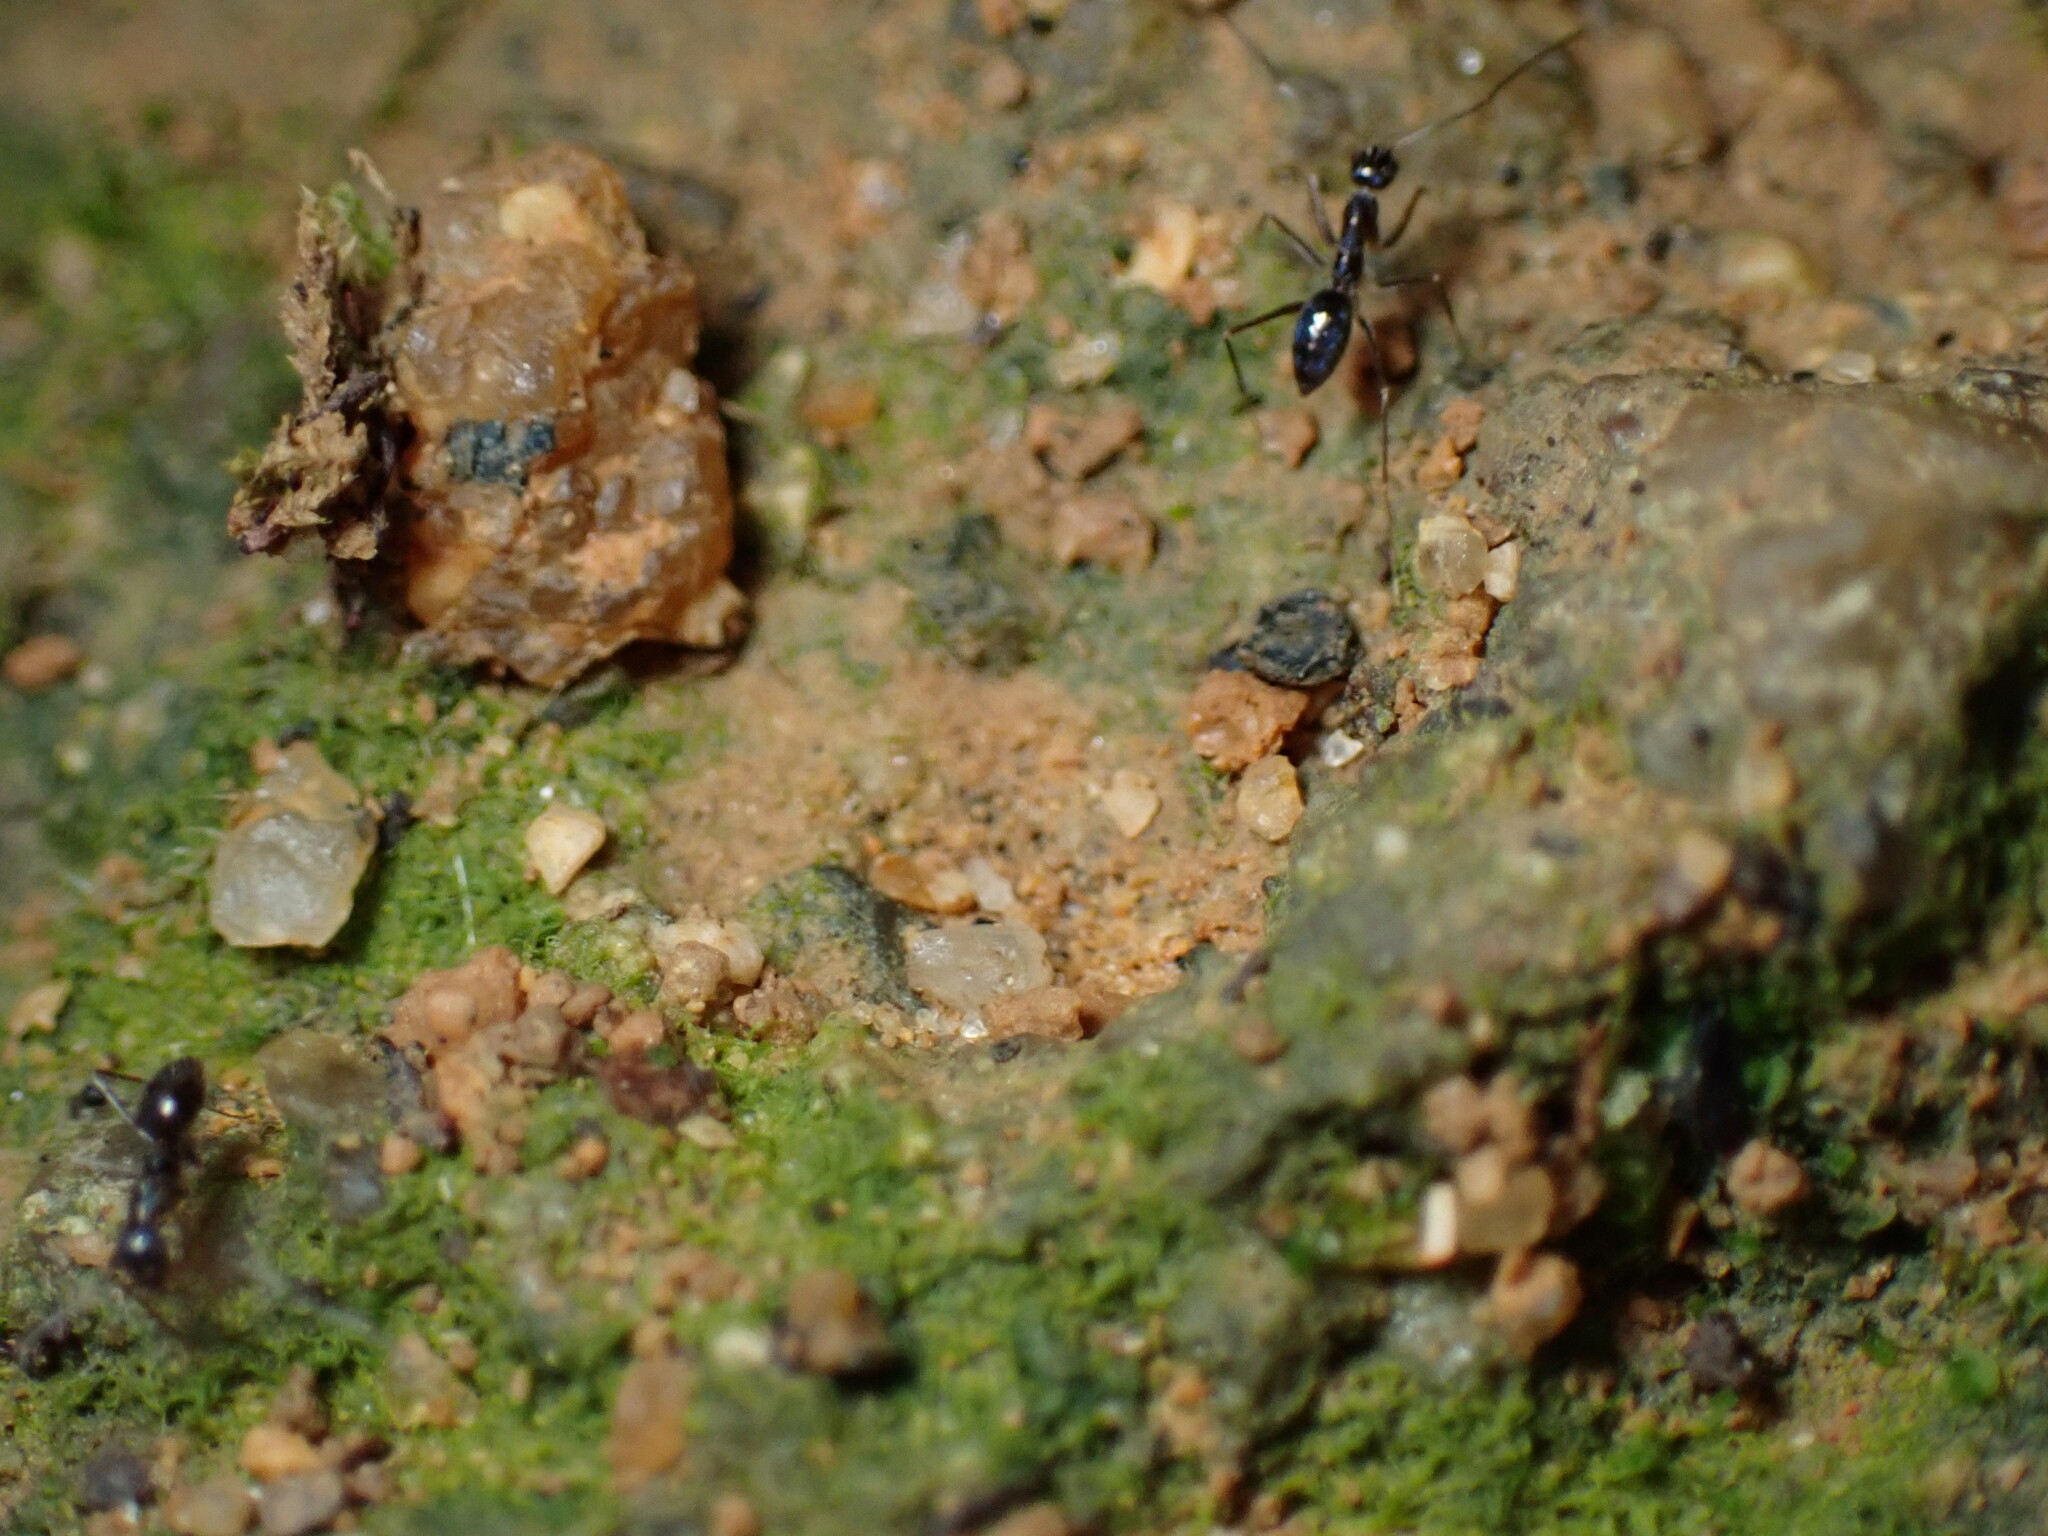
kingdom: Animalia
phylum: Arthropoda
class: Insecta
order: Hymenoptera
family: Formicidae
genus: Paratrechina
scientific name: Paratrechina longicornis
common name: Longhorned crazy ant
